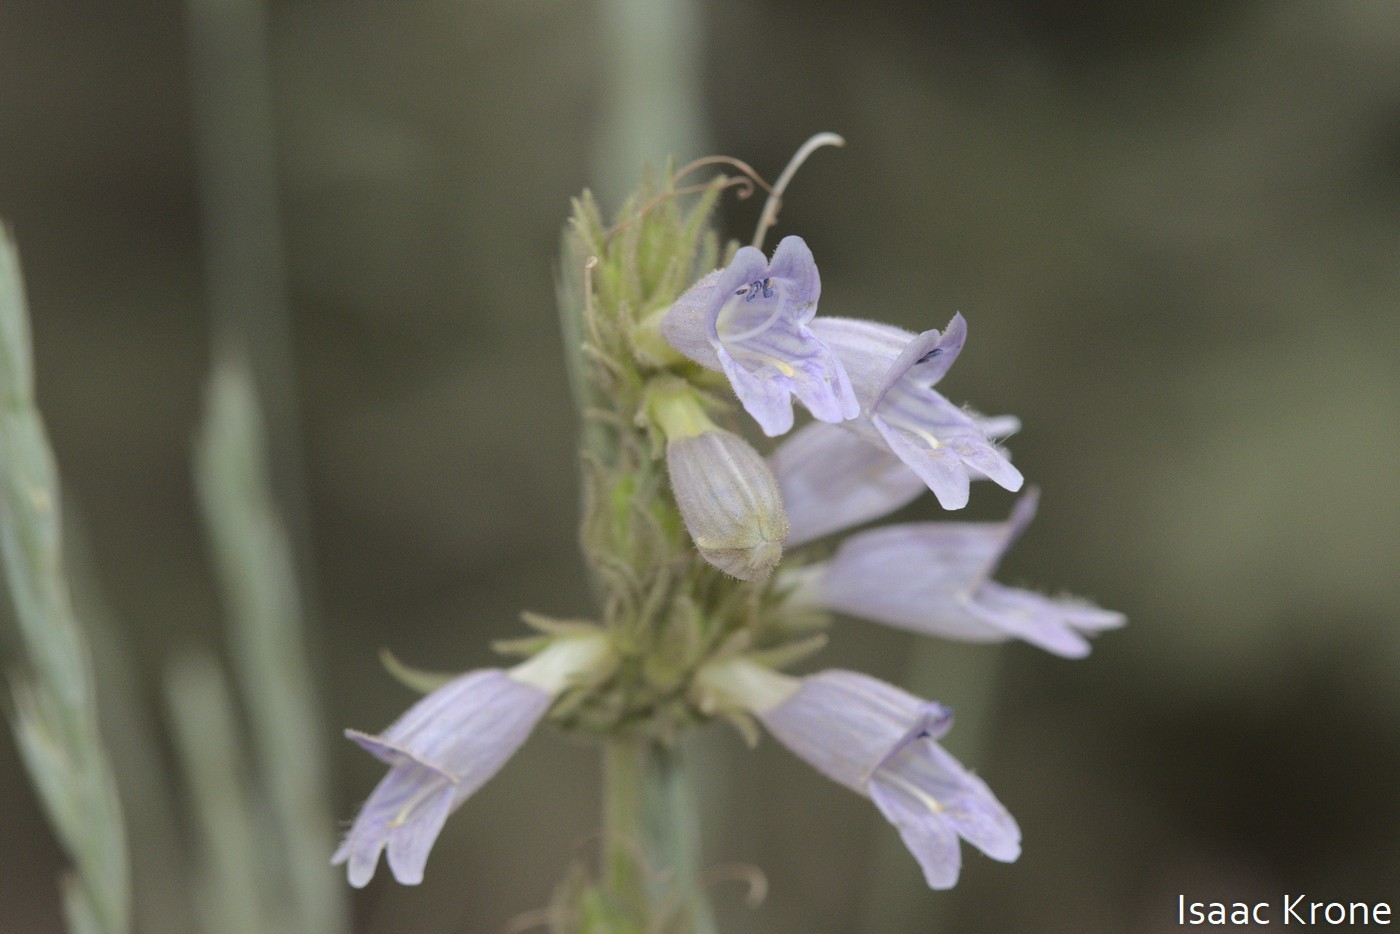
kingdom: Plantae
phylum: Tracheophyta
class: Magnoliopsida
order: Lamiales
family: Plantaginaceae
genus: Penstemon
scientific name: Penstemon whippleanus
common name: Whipple's penstemon
